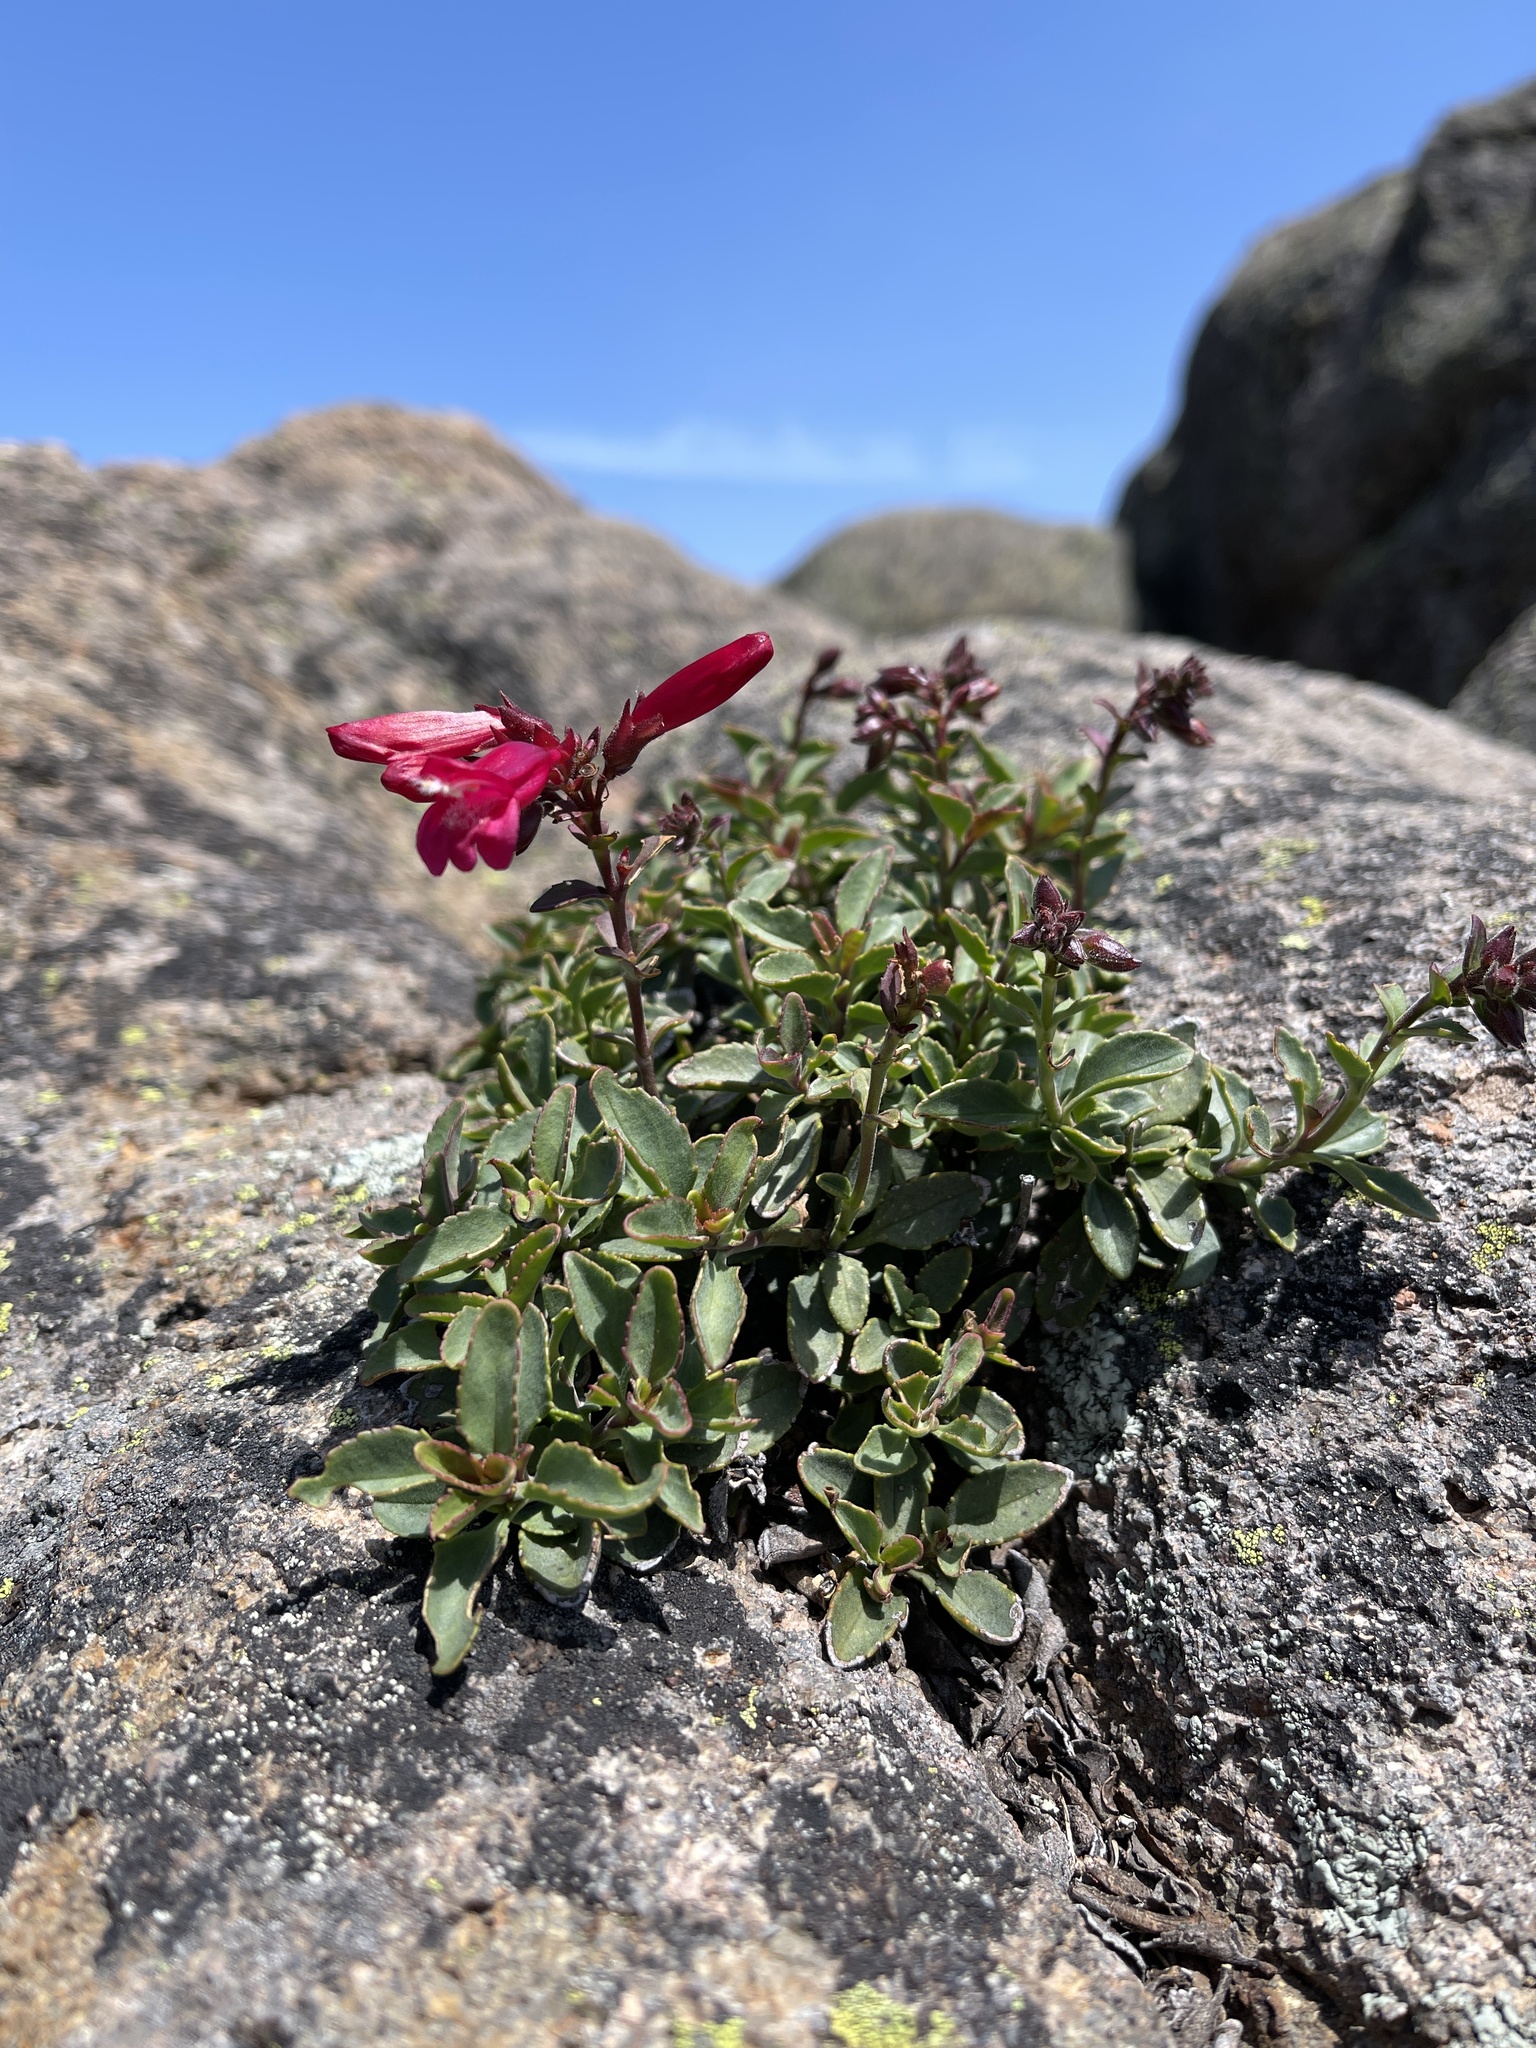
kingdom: Plantae
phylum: Tracheophyta
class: Magnoliopsida
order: Lamiales
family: Plantaginaceae
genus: Penstemon
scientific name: Penstemon newberryi
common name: Mountain-pride
